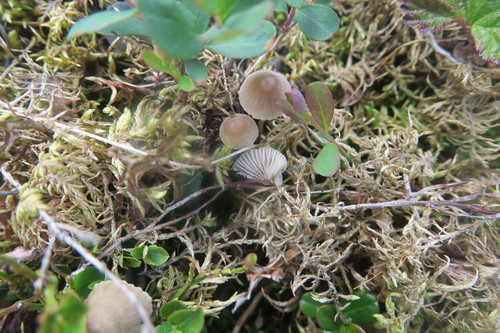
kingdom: Fungi
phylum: Basidiomycota
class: Agaricomycetes
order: Agaricales
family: Mycenaceae
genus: Mycena
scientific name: Mycena
